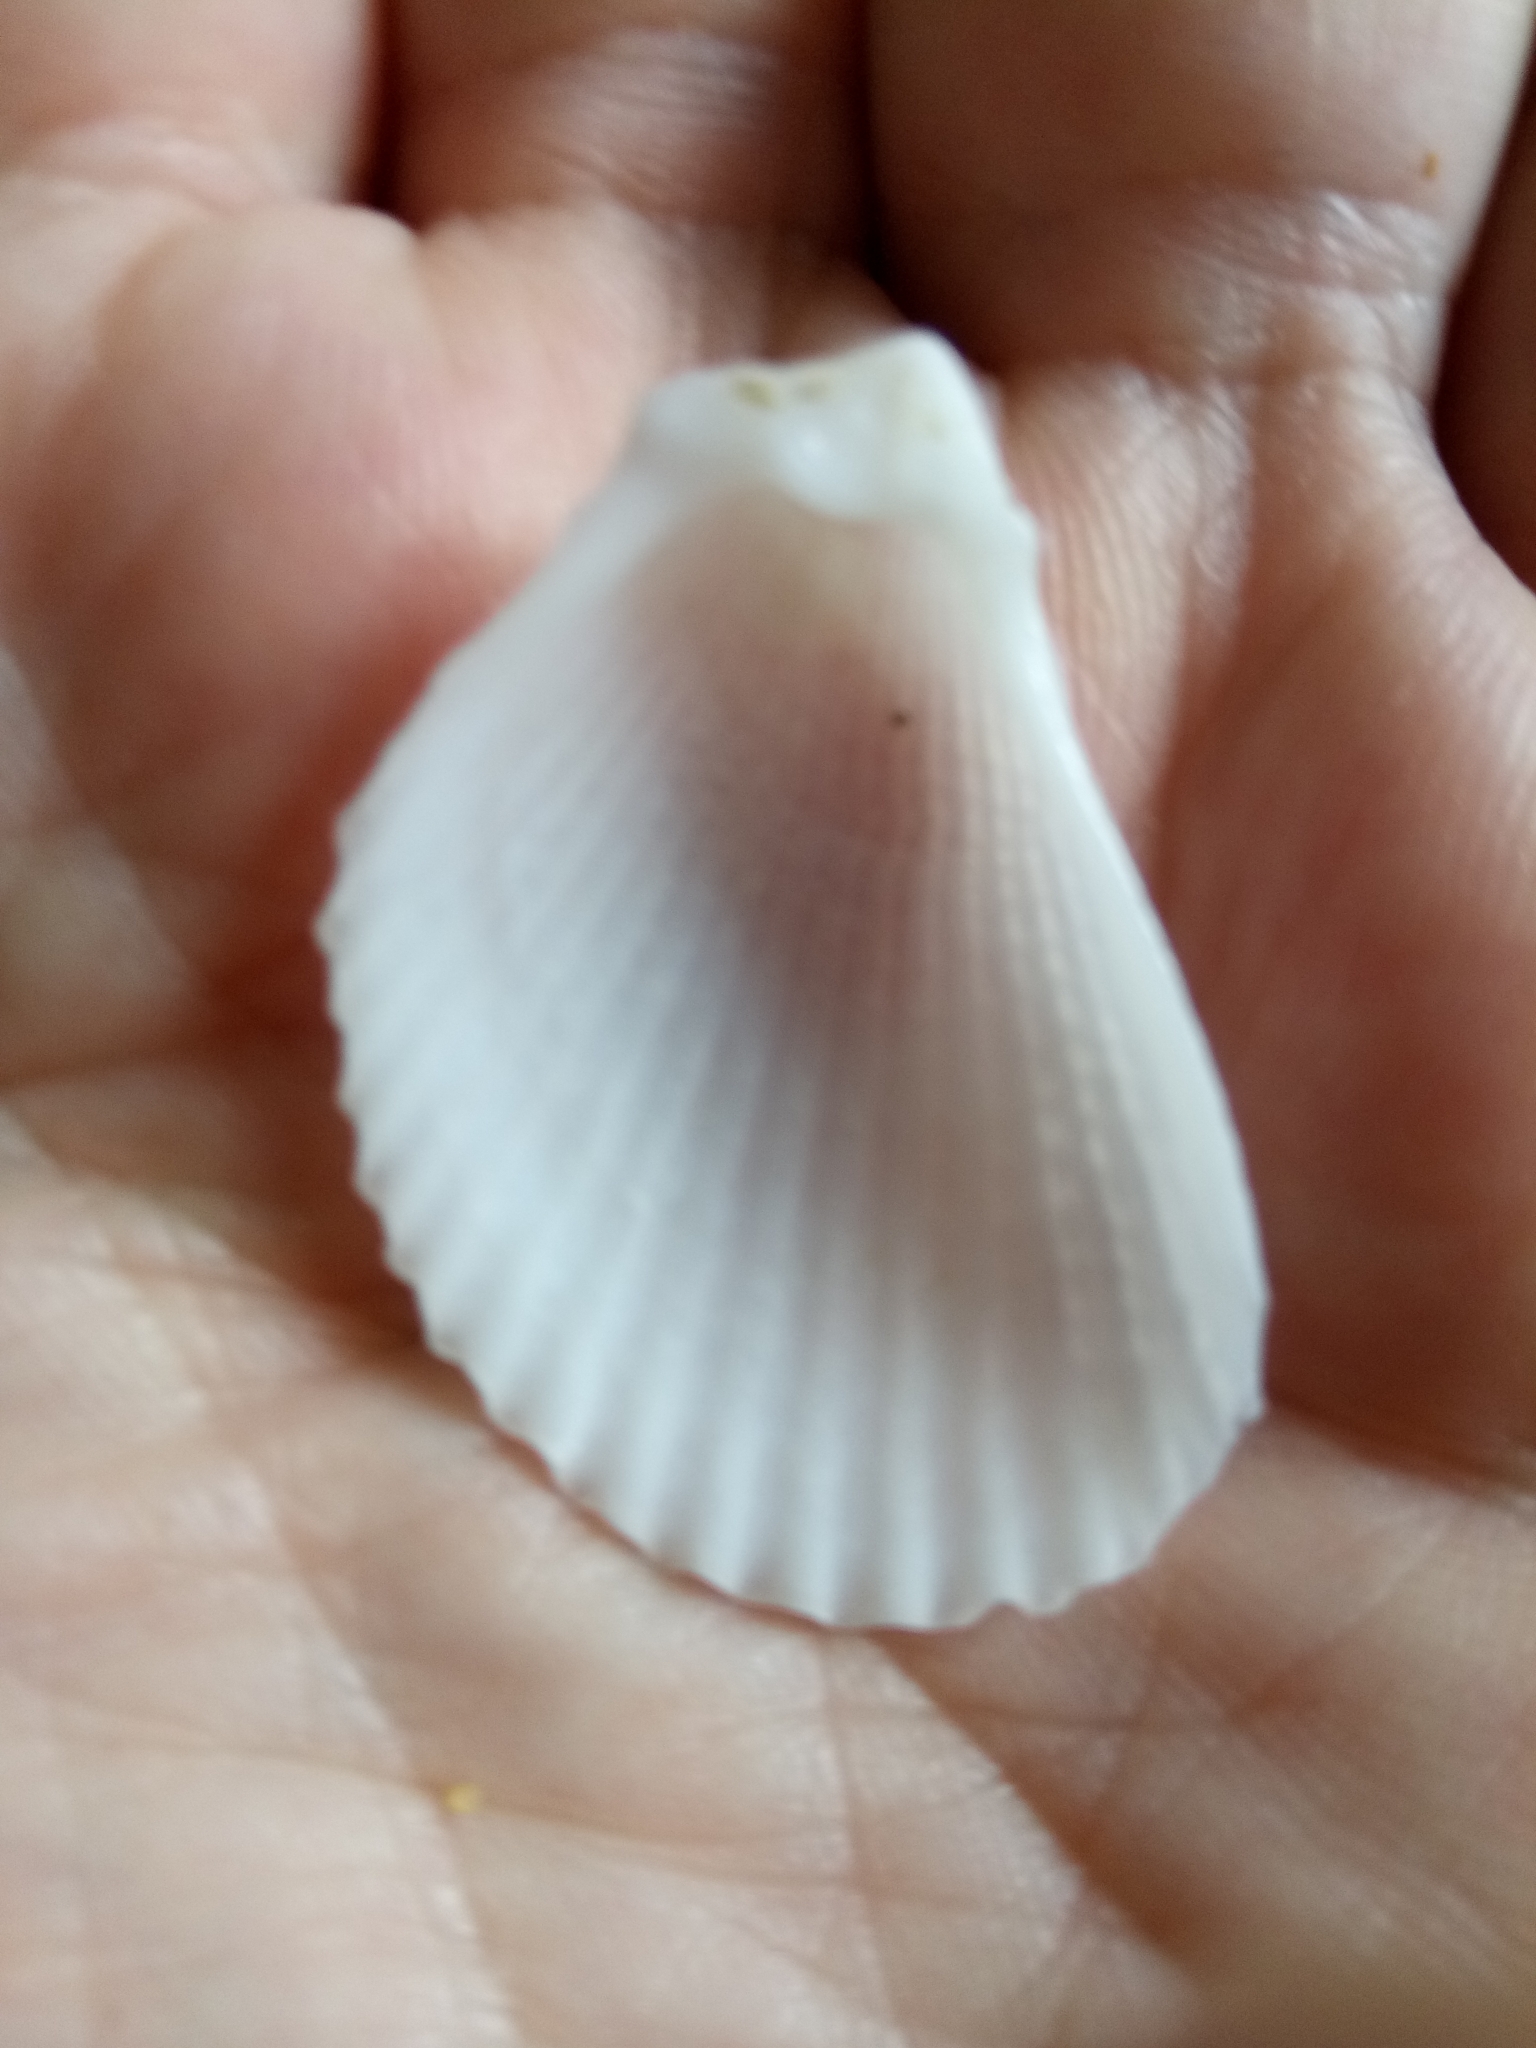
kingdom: Animalia
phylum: Mollusca
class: Bivalvia
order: Limida
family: Limidae
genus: Lima
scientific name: Lima lima
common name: Frilled file shell
